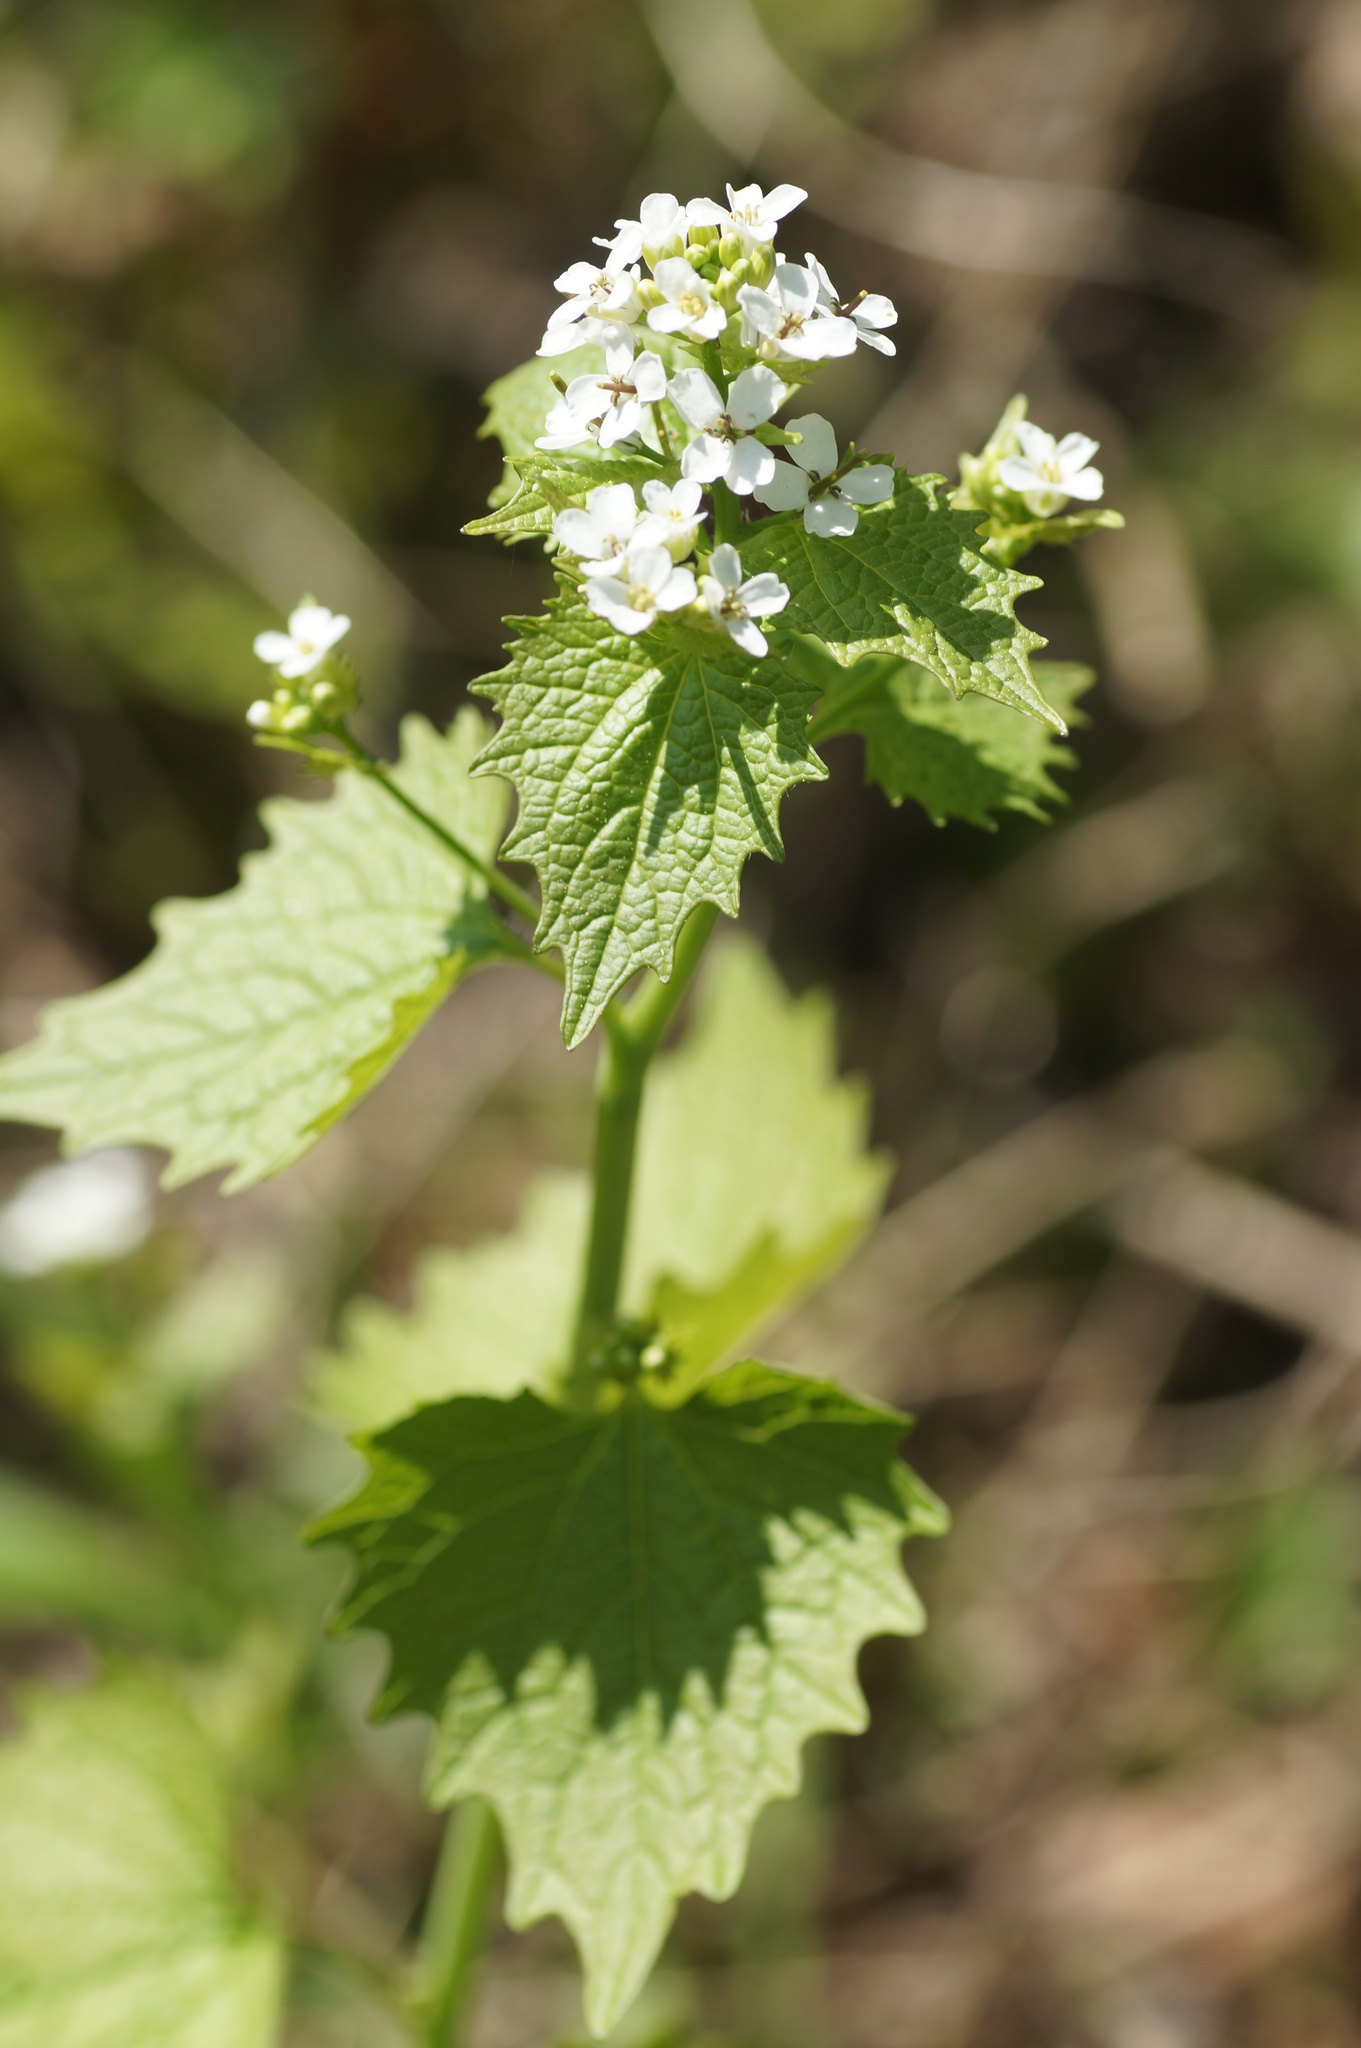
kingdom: Plantae
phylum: Tracheophyta
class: Magnoliopsida
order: Brassicales
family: Brassicaceae
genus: Alliaria
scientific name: Alliaria petiolata
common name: Garlic mustard
